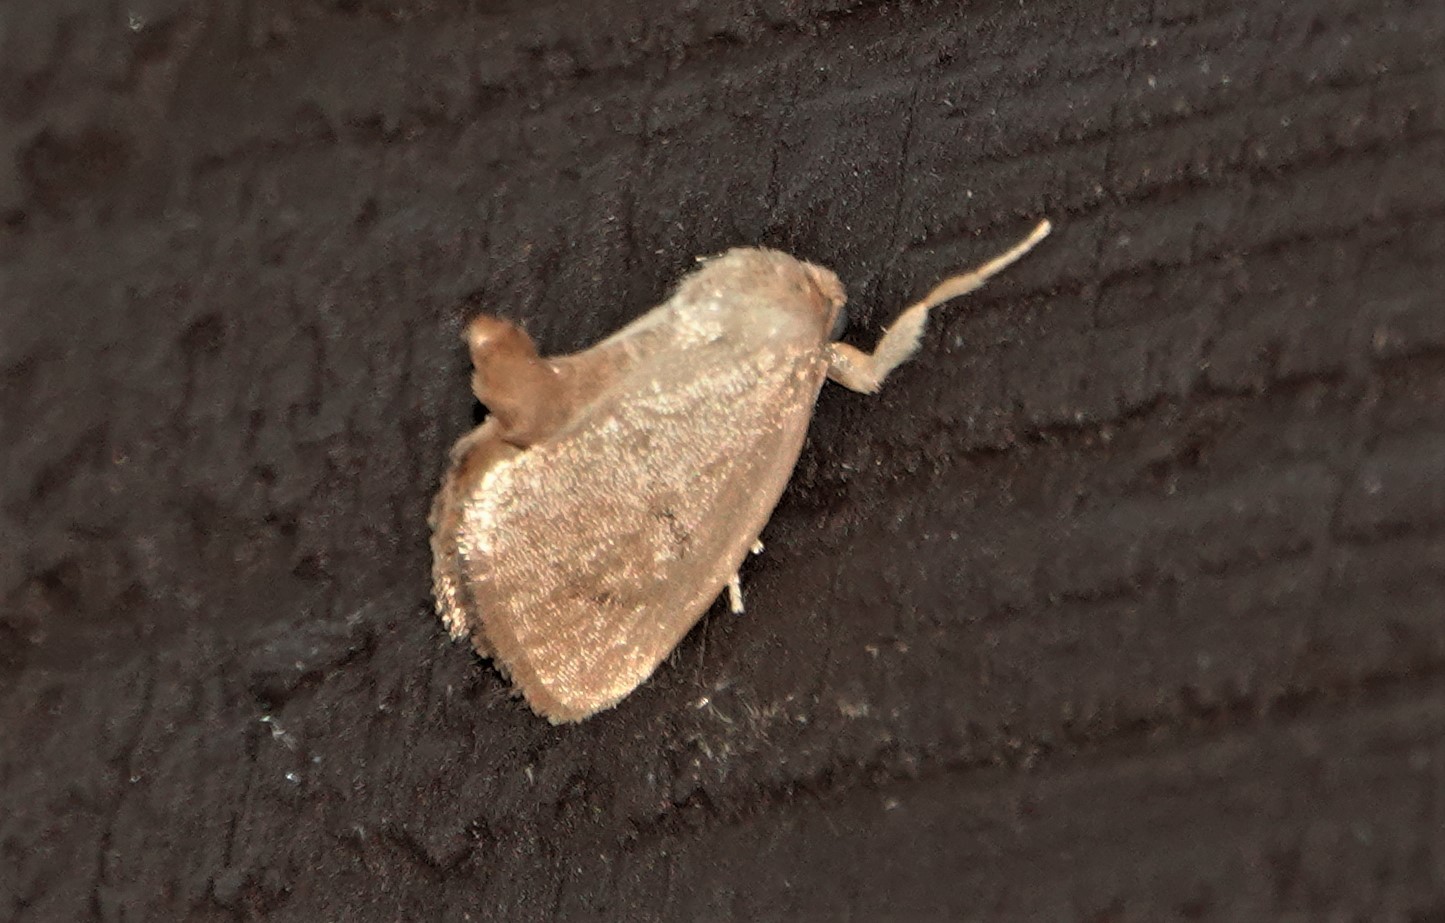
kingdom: Animalia
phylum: Arthropoda
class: Insecta
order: Lepidoptera
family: Limacodidae
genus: Tortricidia
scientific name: Tortricidia pallida
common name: Red-crossed button slug moth
